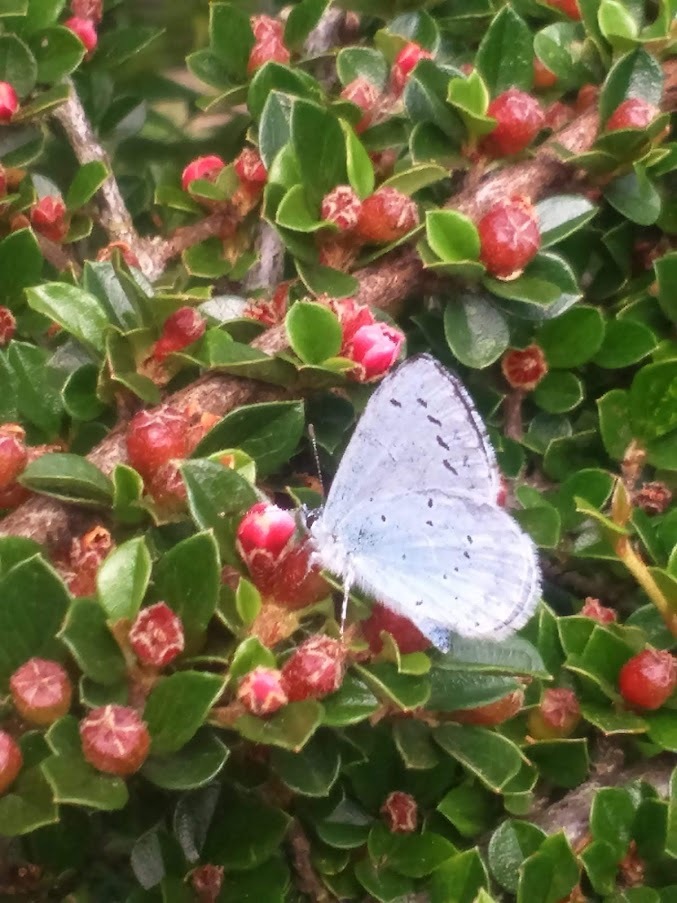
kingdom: Animalia
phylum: Arthropoda
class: Insecta
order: Lepidoptera
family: Lycaenidae
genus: Celastrina
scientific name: Celastrina argiolus
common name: Holly blue
